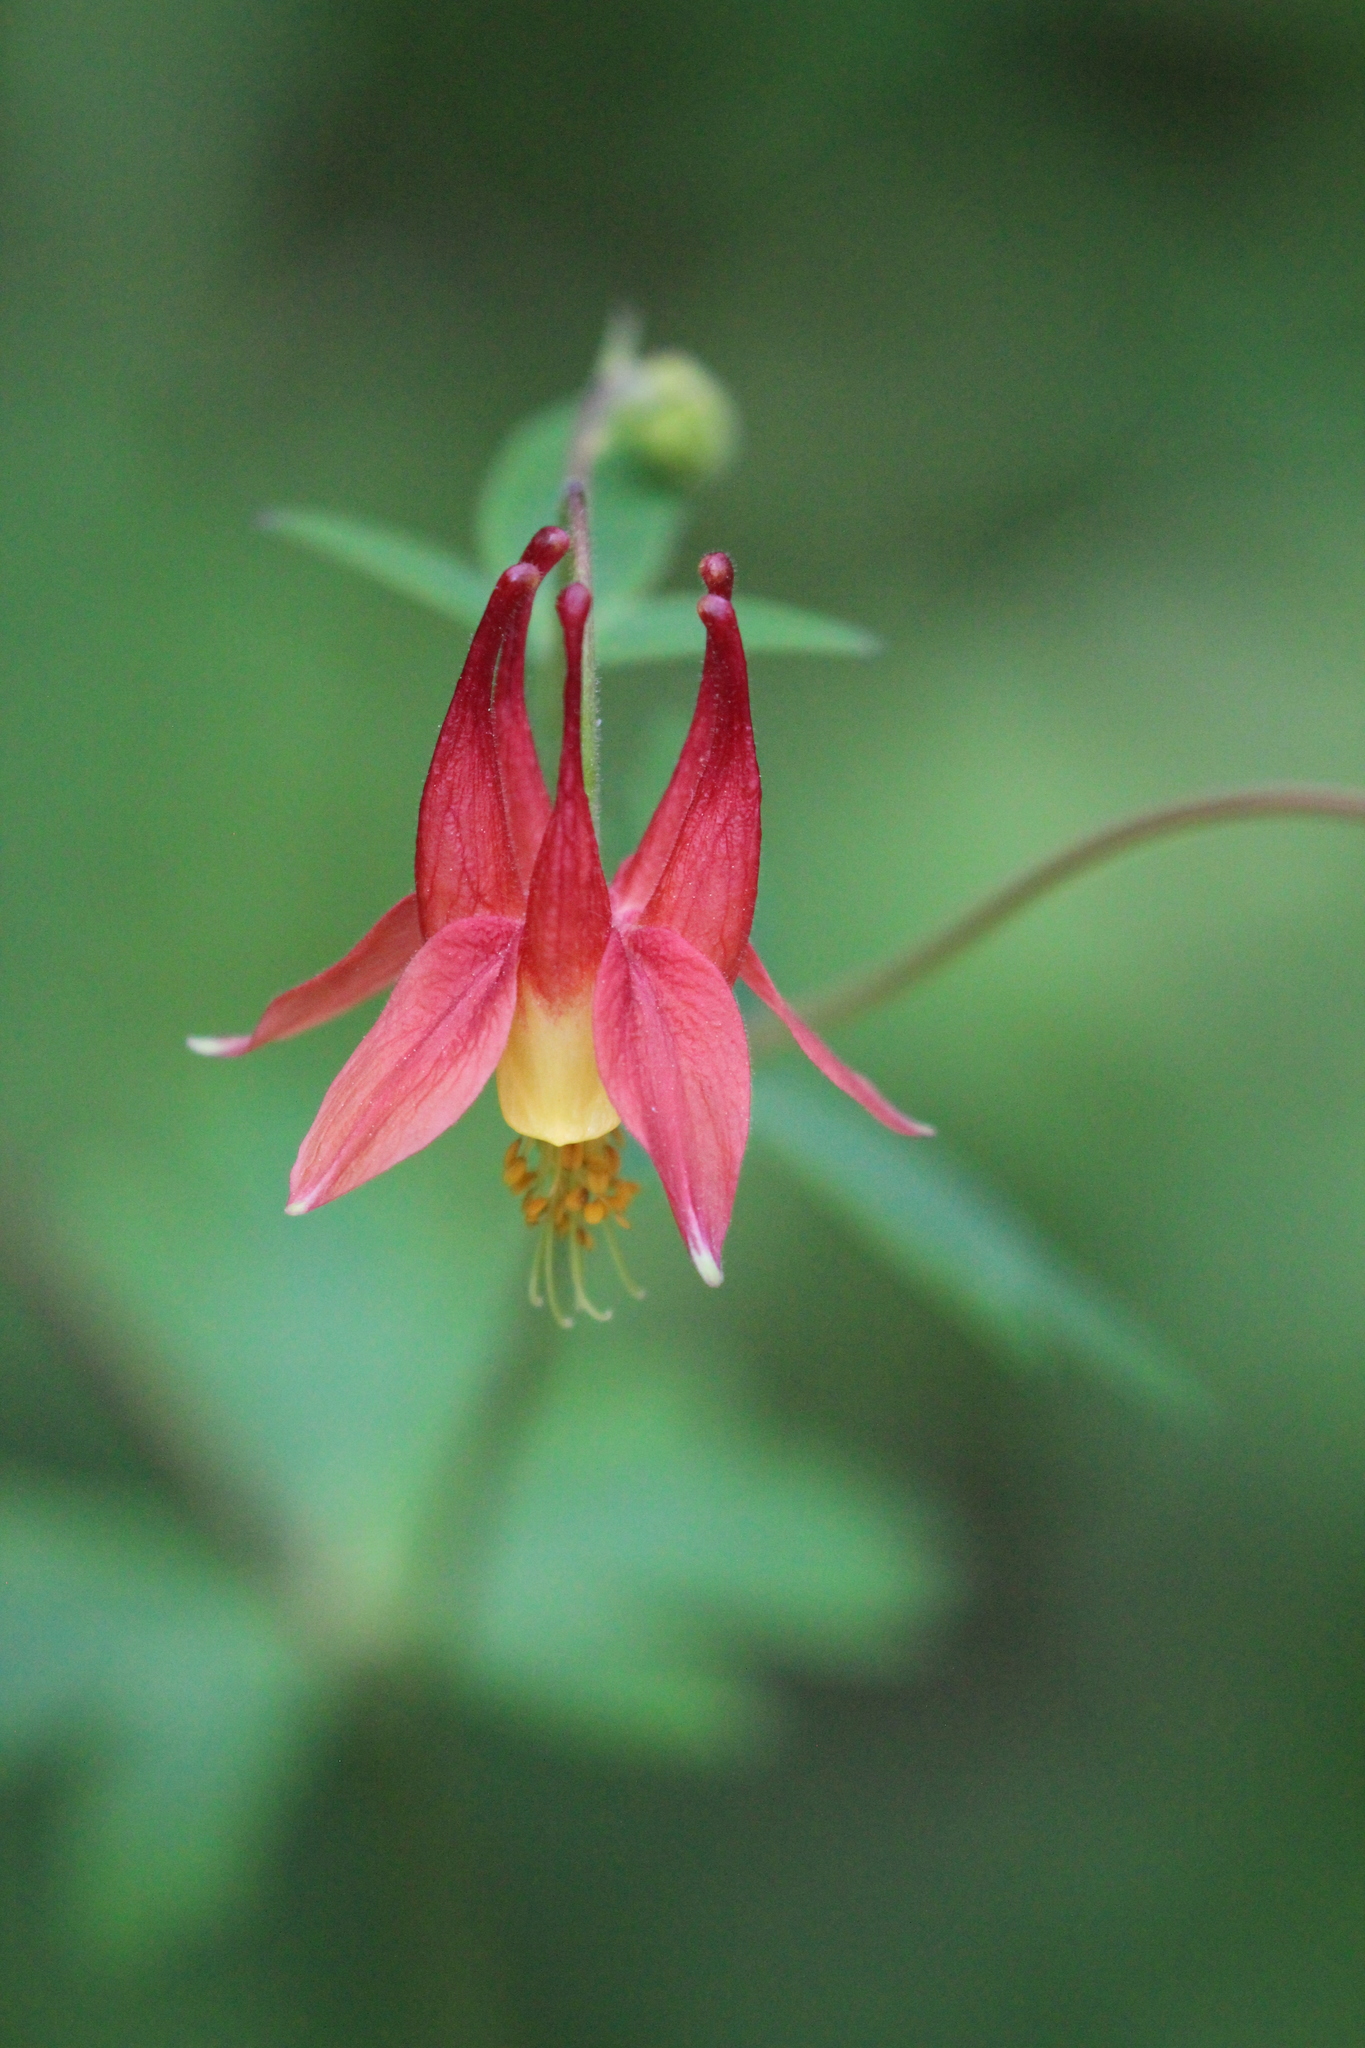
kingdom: Plantae
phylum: Tracheophyta
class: Magnoliopsida
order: Ranunculales
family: Ranunculaceae
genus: Aquilegia
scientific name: Aquilegia canadensis
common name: American columbine
